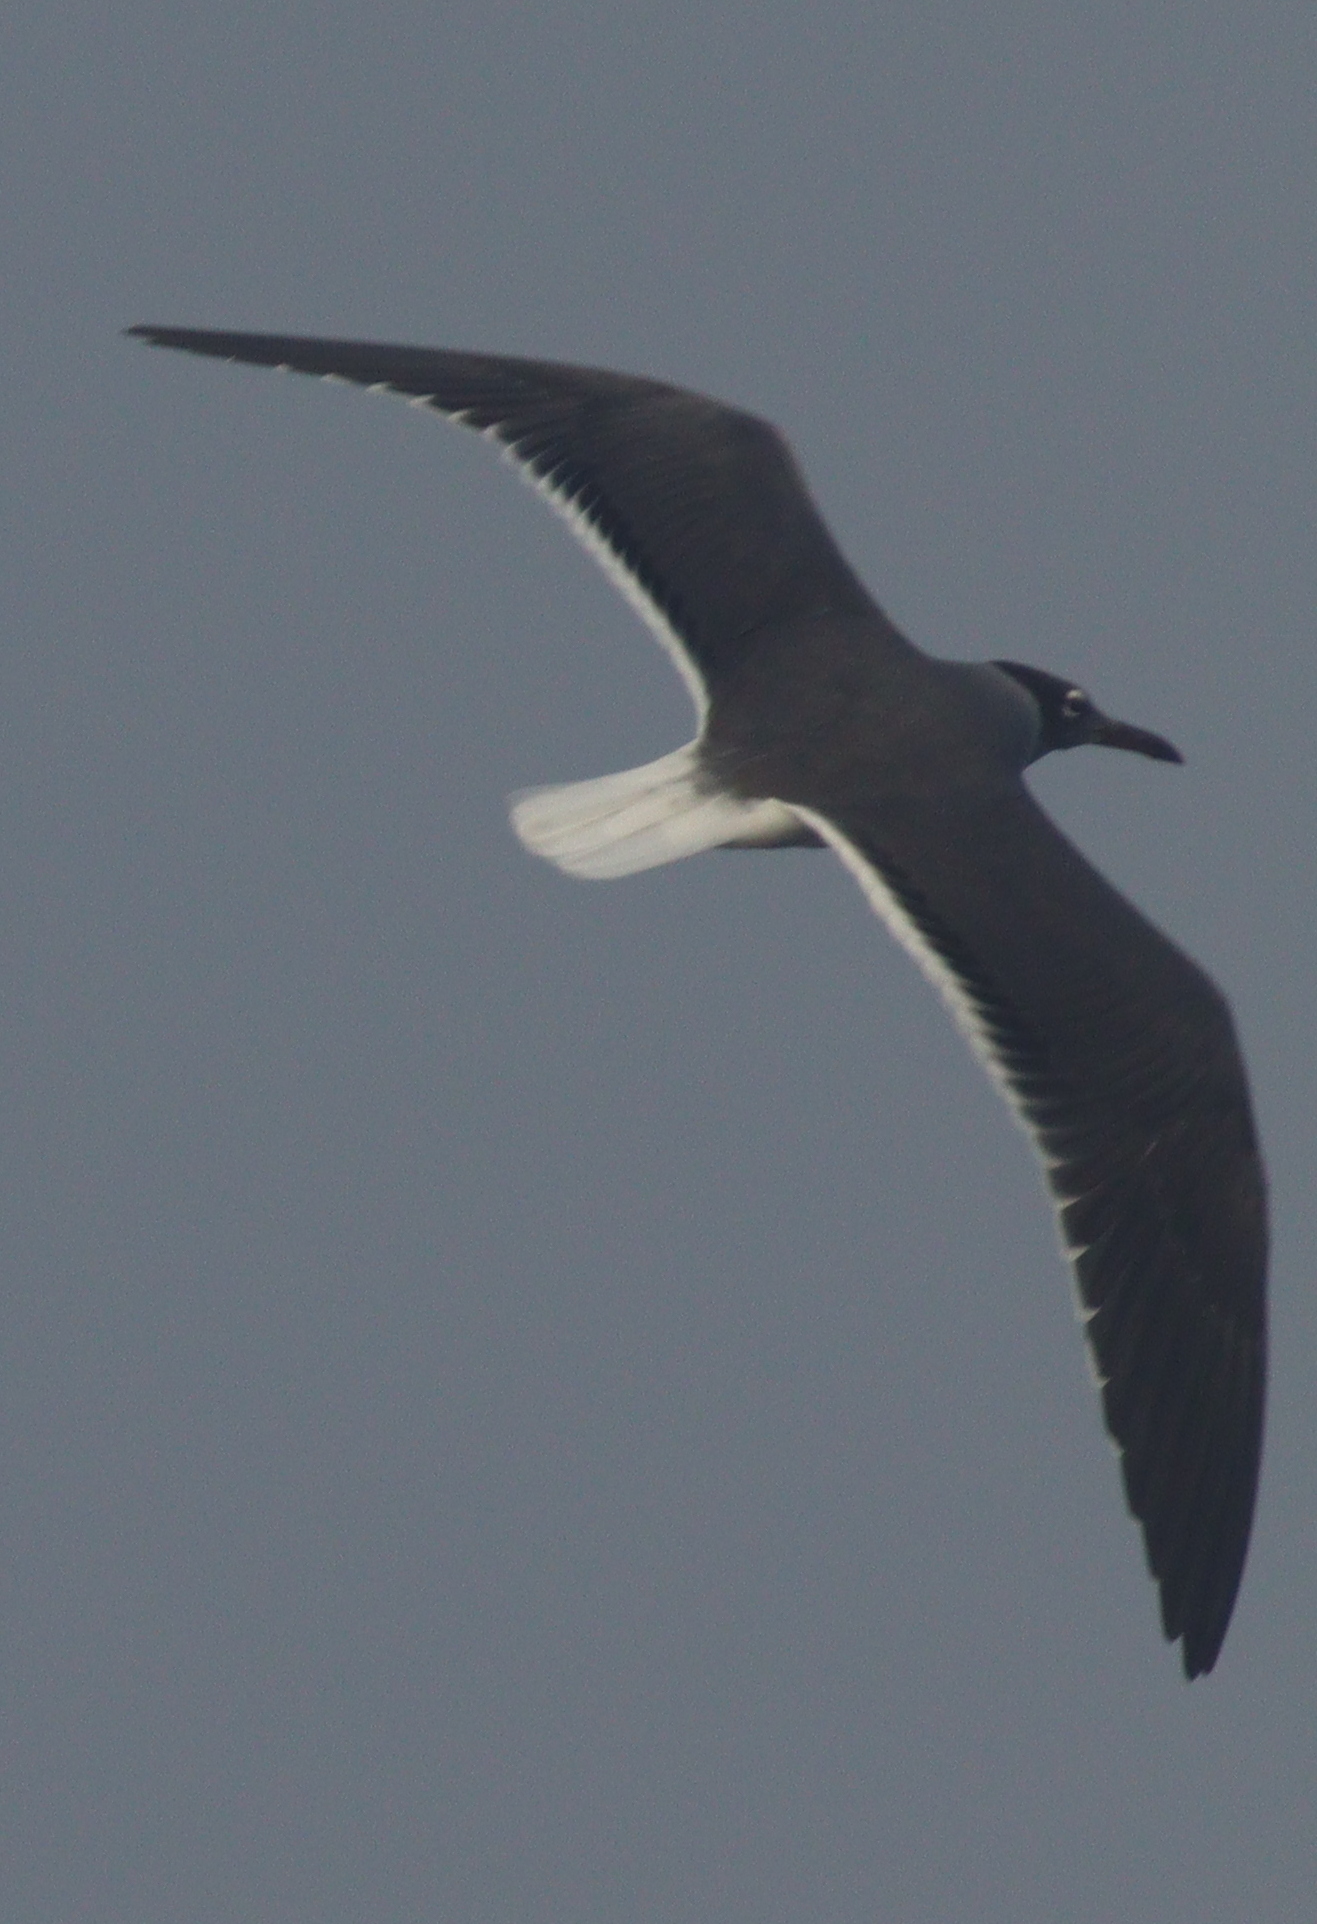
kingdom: Animalia
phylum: Chordata
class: Aves
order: Charadriiformes
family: Laridae
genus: Ichthyaetus
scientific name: Ichthyaetus leucophthalmus
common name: White-eyed gull
